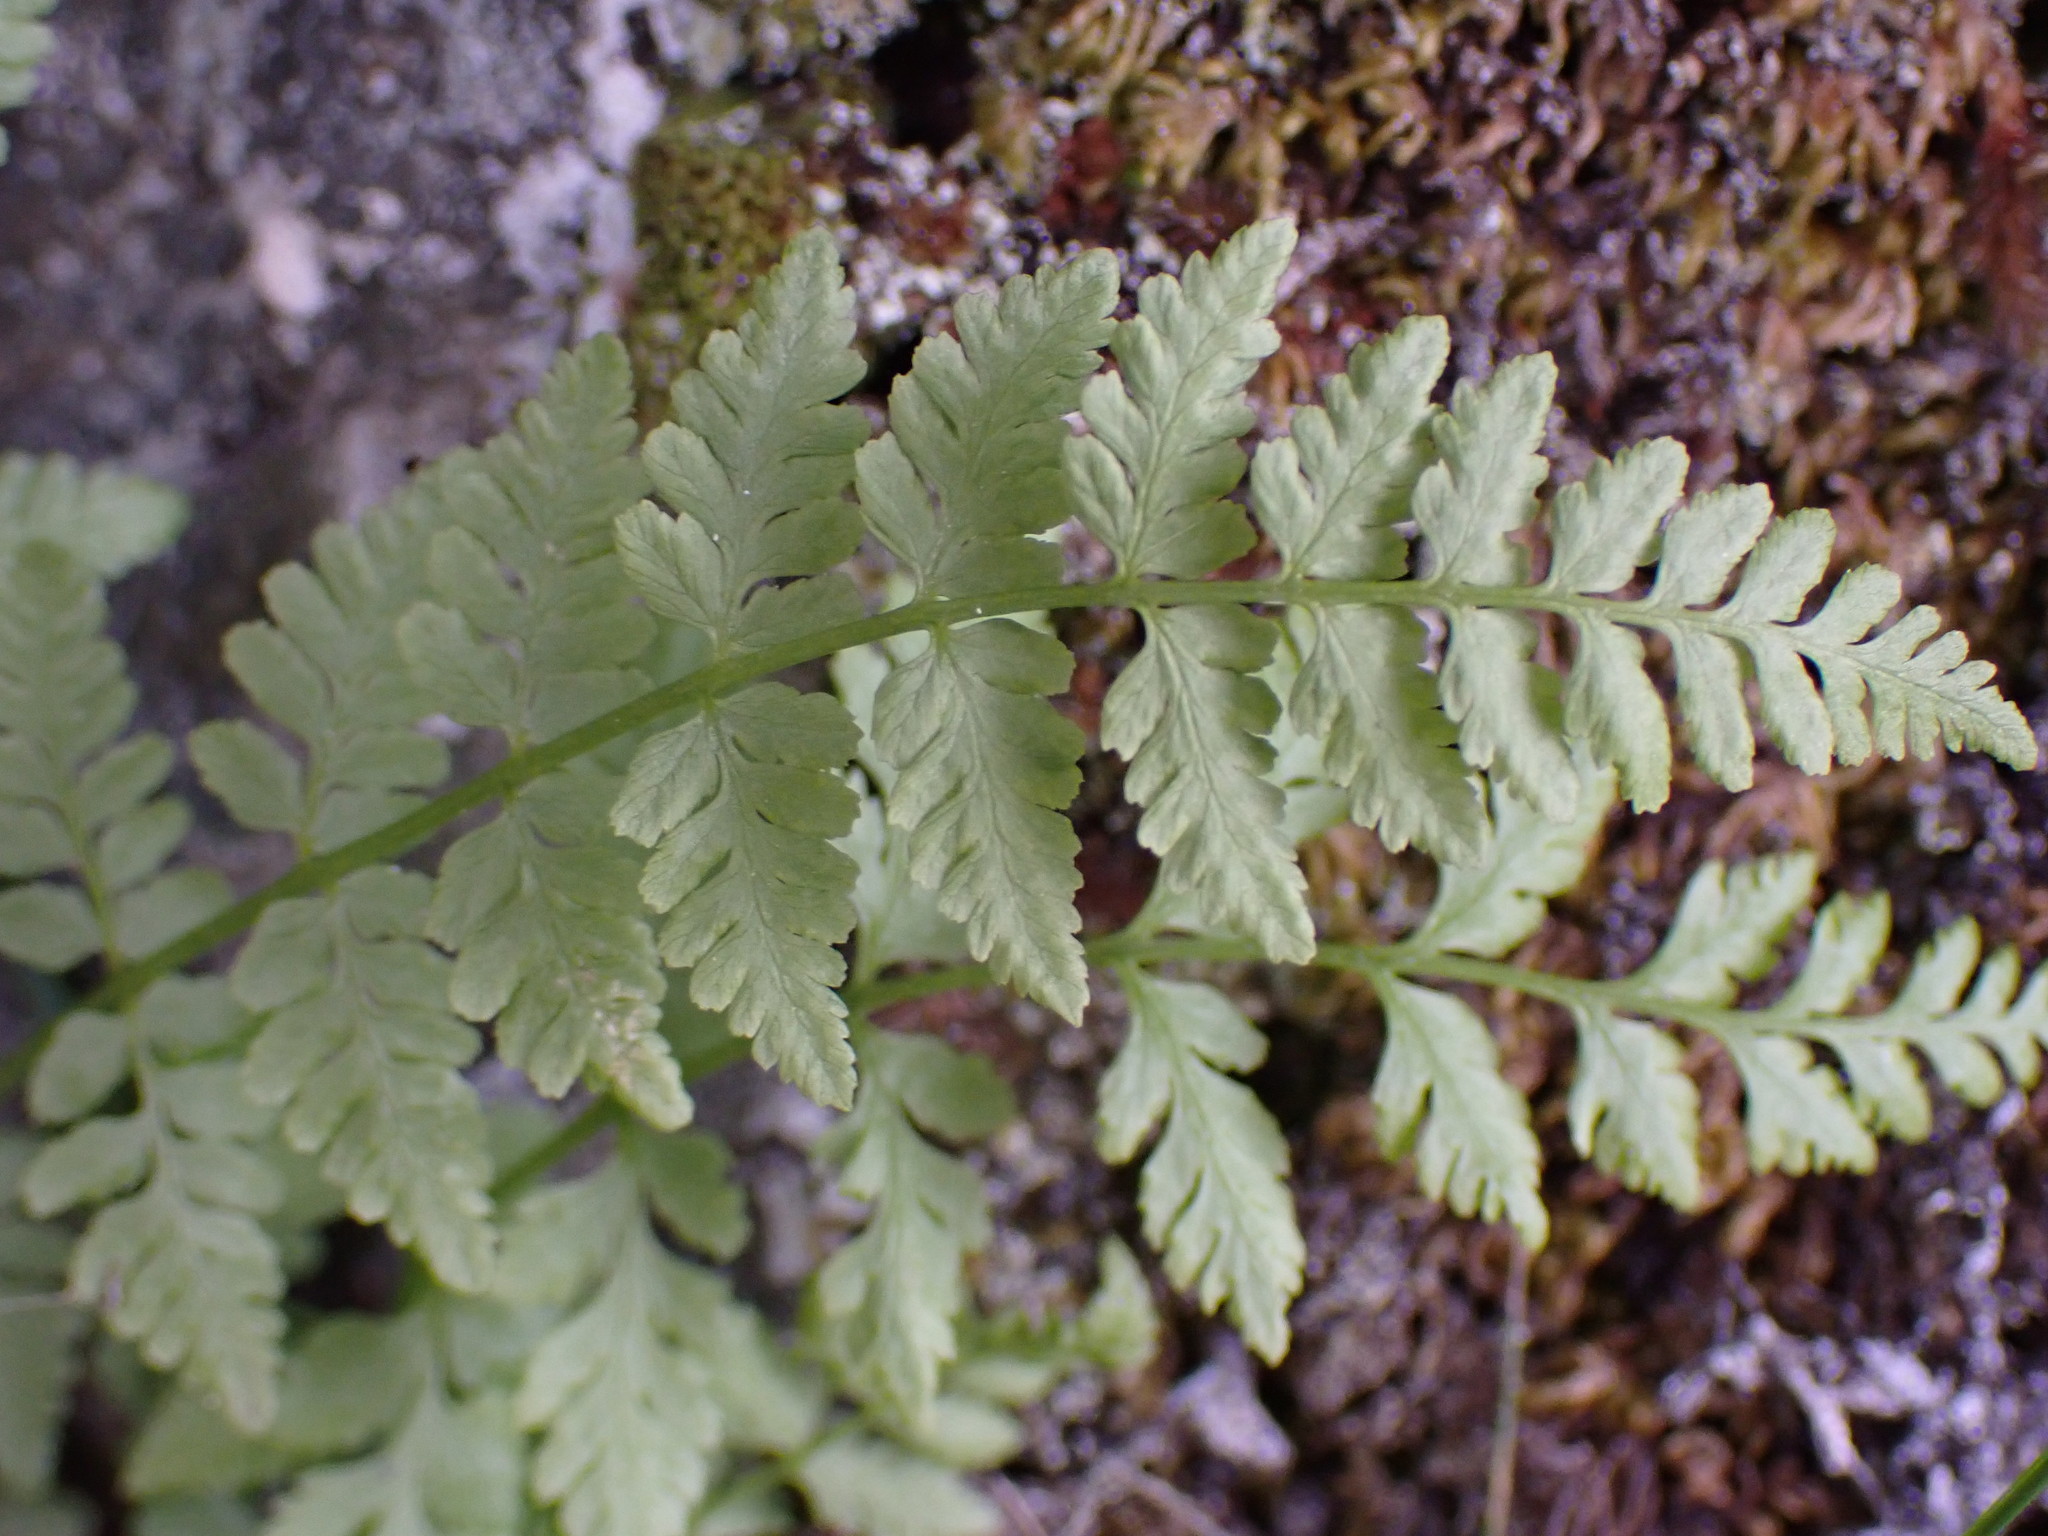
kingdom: Plantae
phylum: Tracheophyta
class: Polypodiopsida
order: Polypodiales
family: Cystopteridaceae
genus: Cystopteris
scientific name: Cystopteris fragilis
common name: Brittle bladder fern
